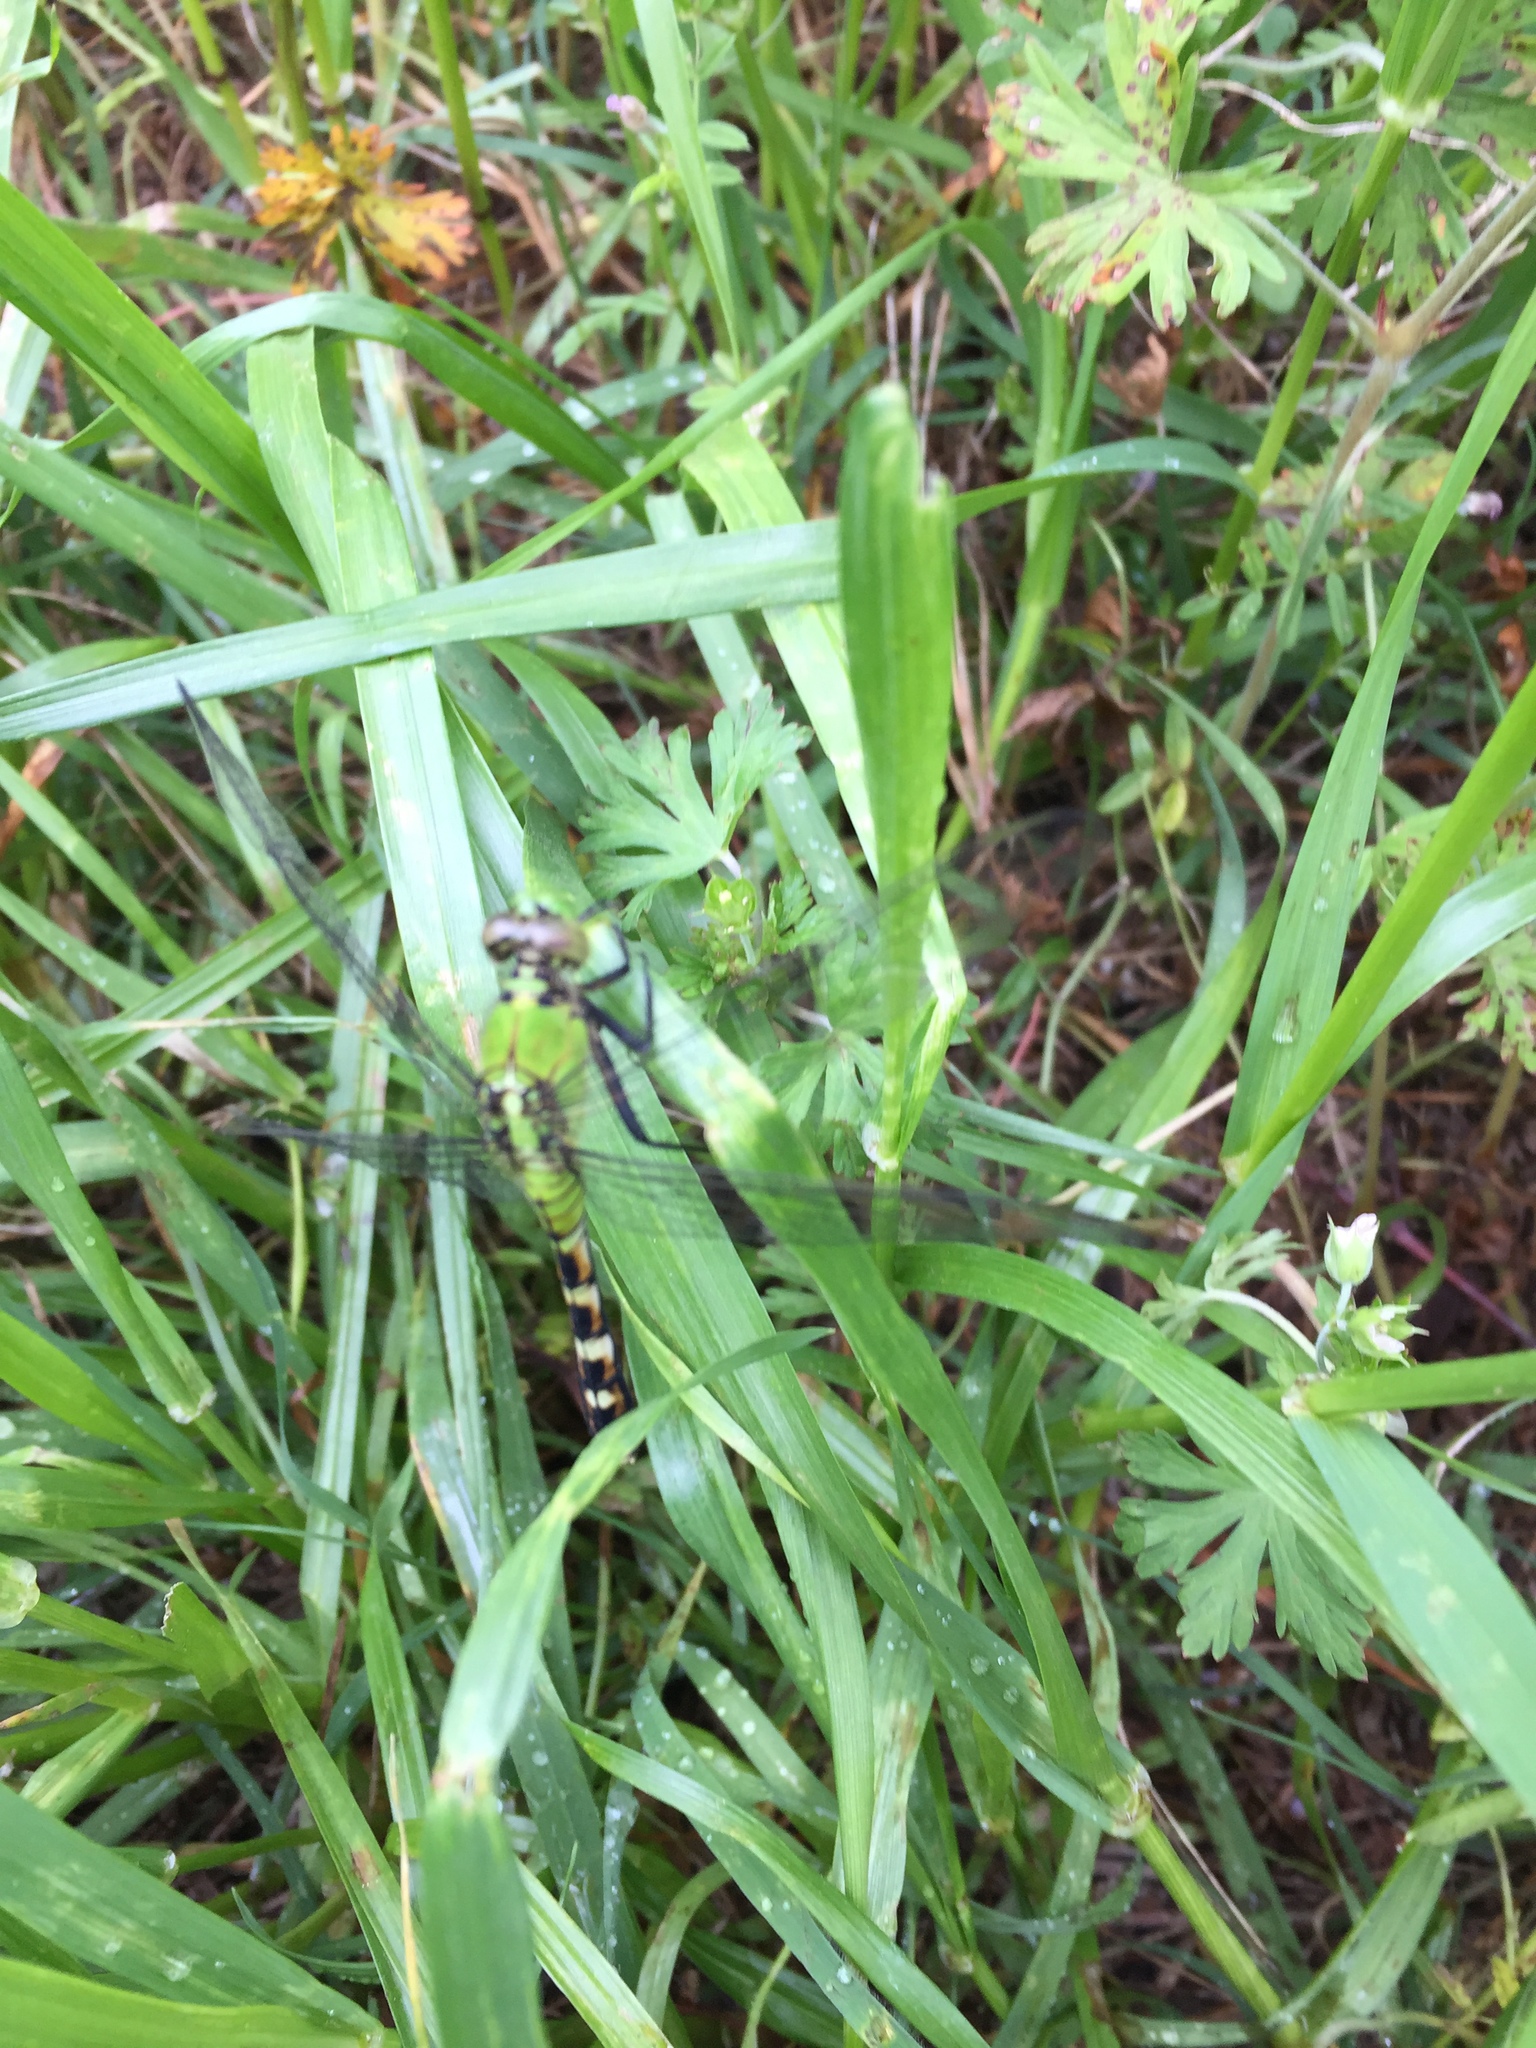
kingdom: Animalia
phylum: Arthropoda
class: Insecta
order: Odonata
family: Libellulidae
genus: Erythemis
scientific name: Erythemis simplicicollis
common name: Eastern pondhawk
